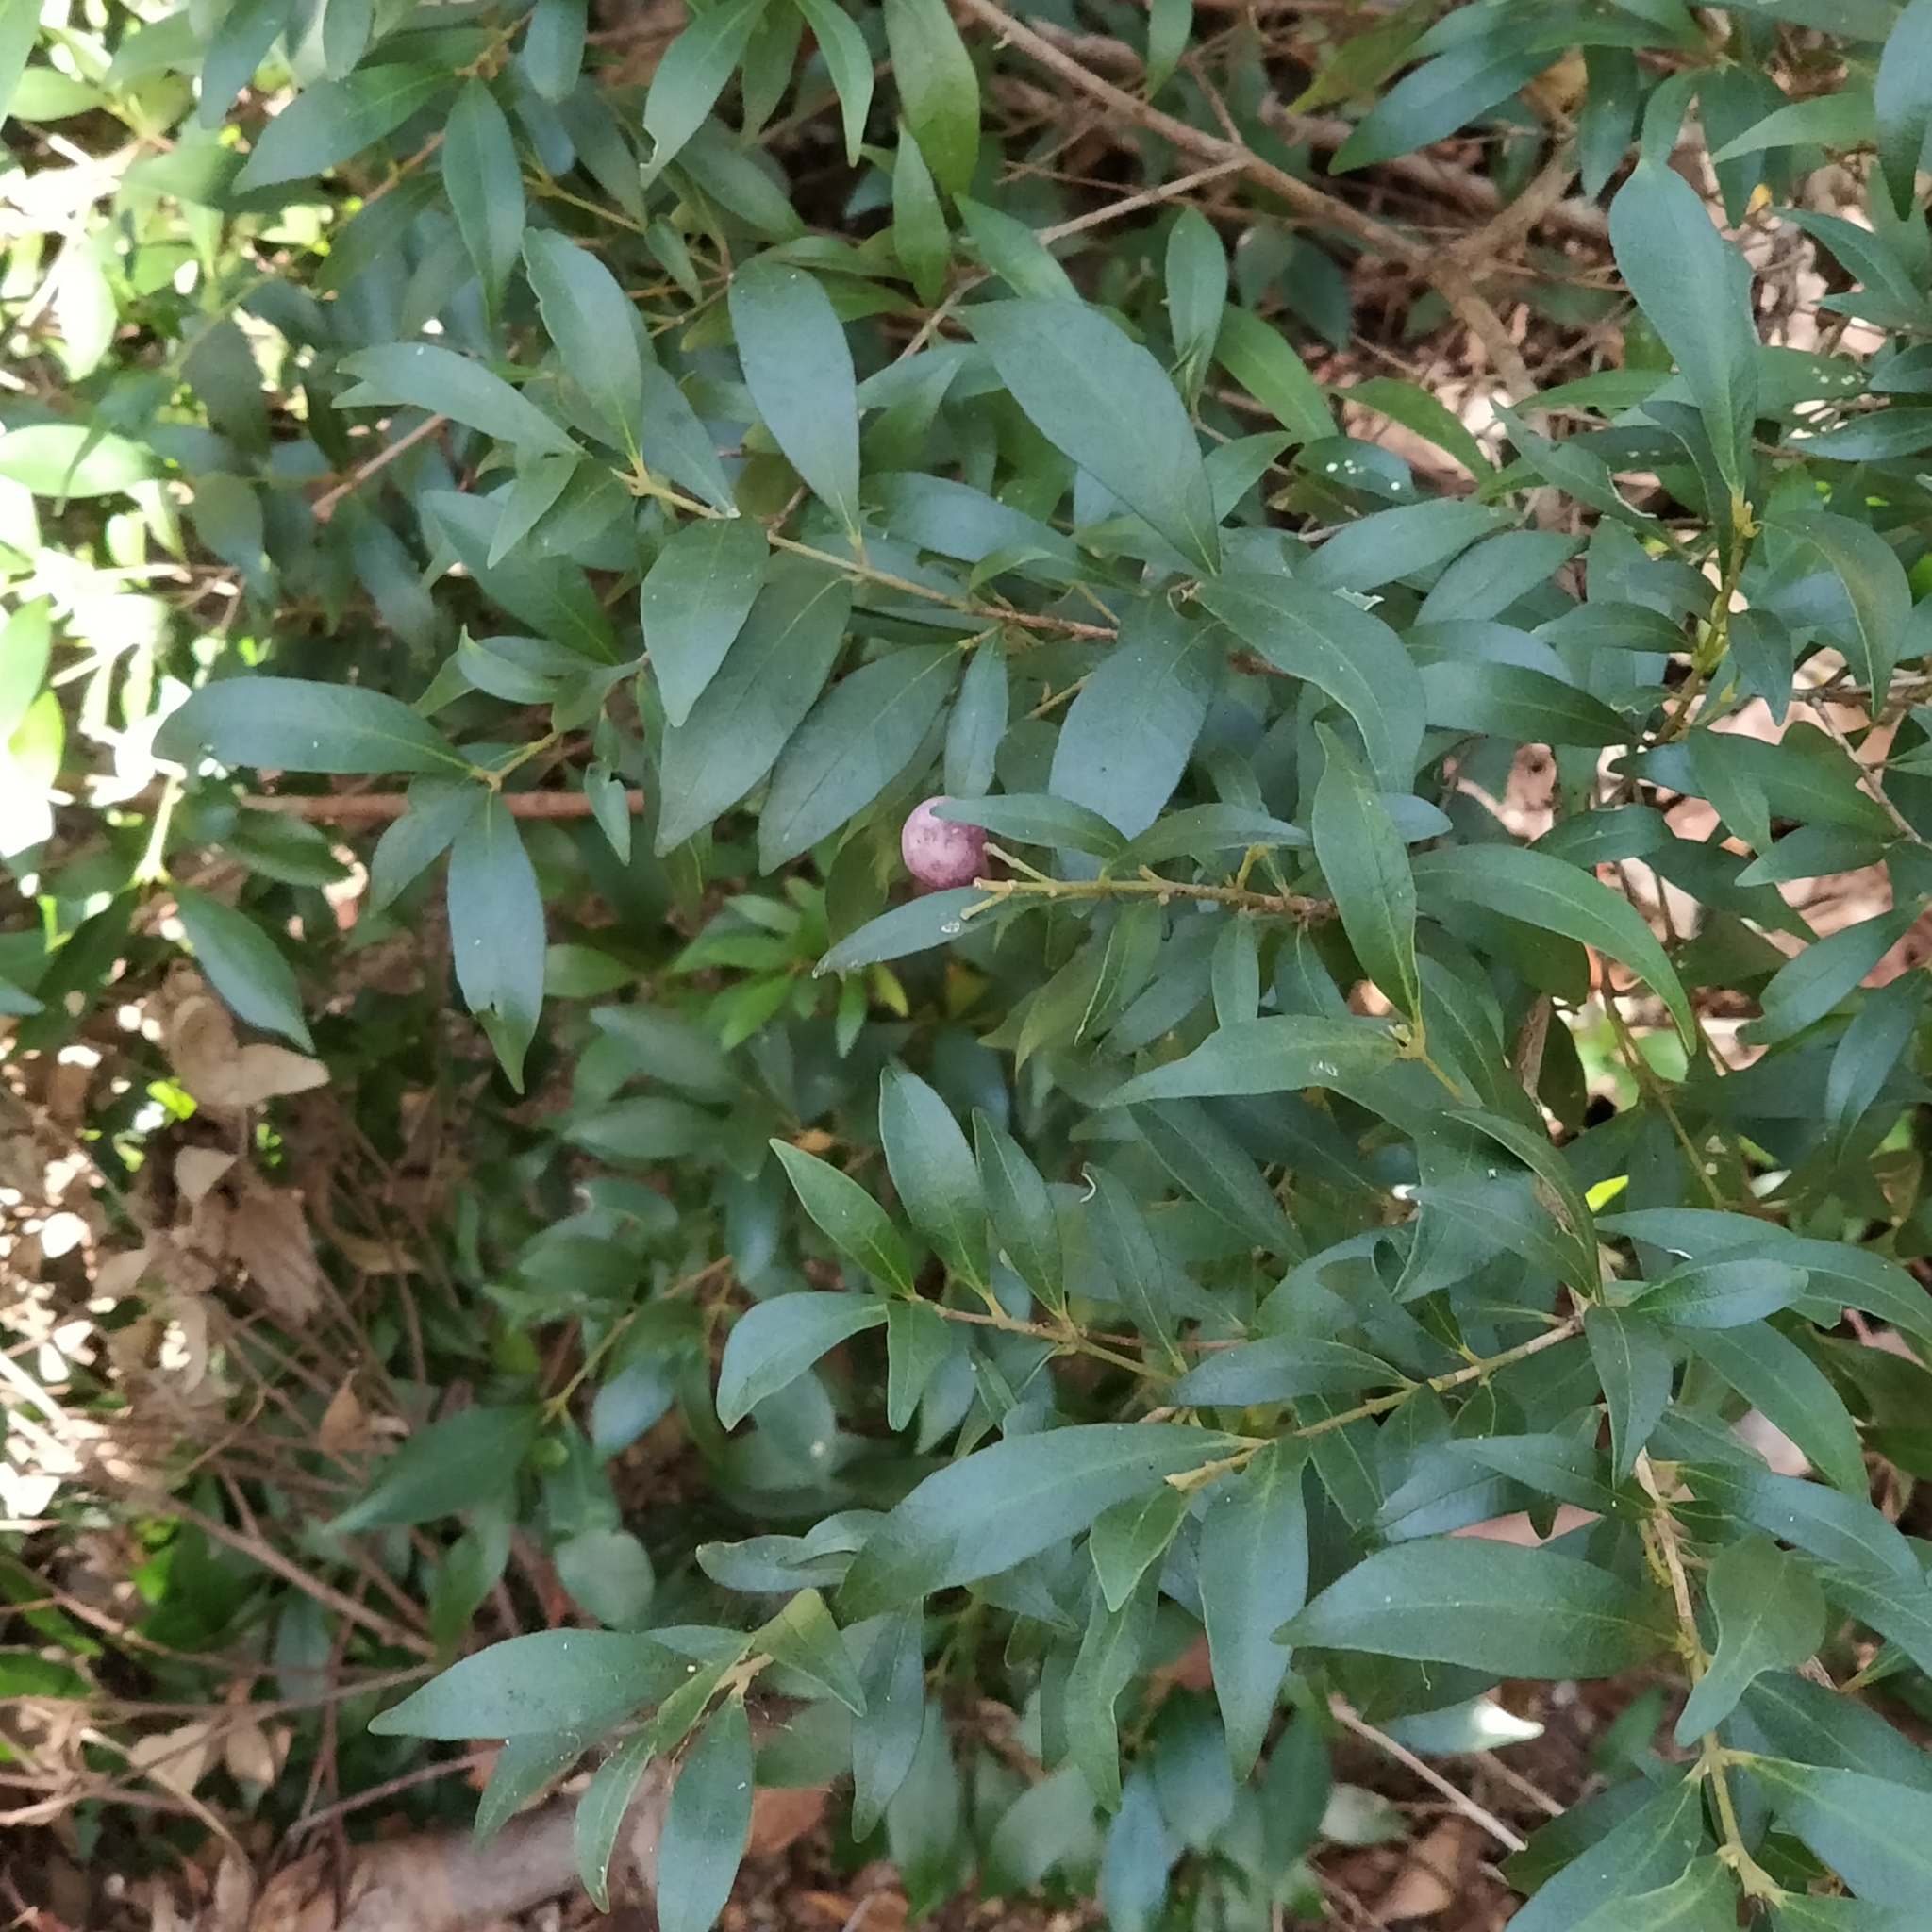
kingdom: Plantae
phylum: Tracheophyta
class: Magnoliopsida
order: Myrtales
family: Myrtaceae
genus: Syzygium
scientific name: Syzygium smithii
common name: Lilly-pilly
